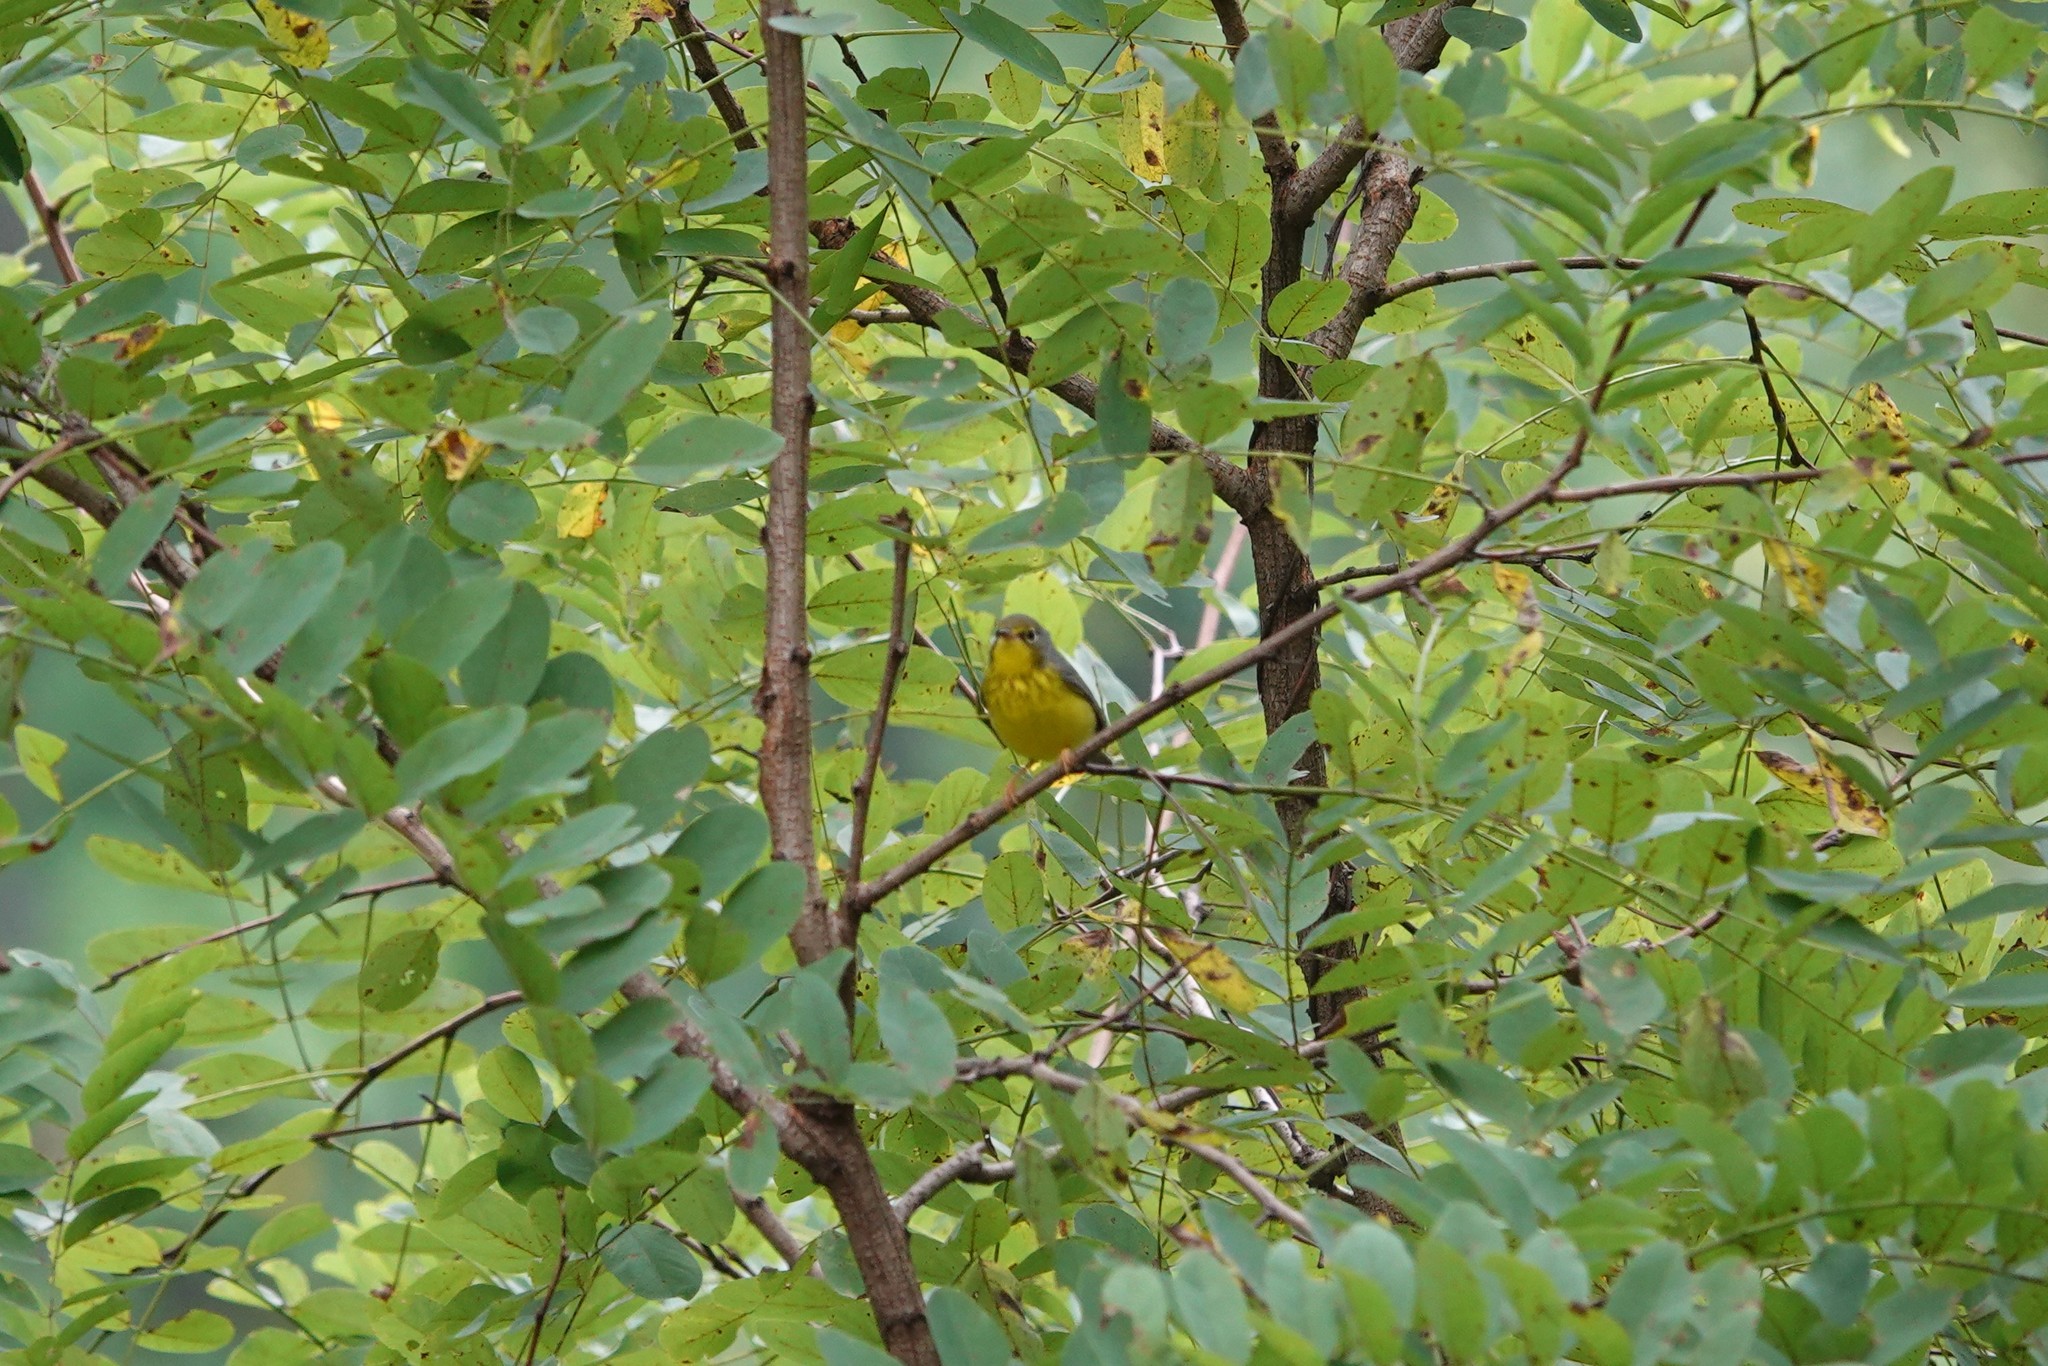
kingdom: Animalia
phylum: Chordata
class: Aves
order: Passeriformes
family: Parulidae
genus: Cardellina
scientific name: Cardellina canadensis
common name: Canada warbler
